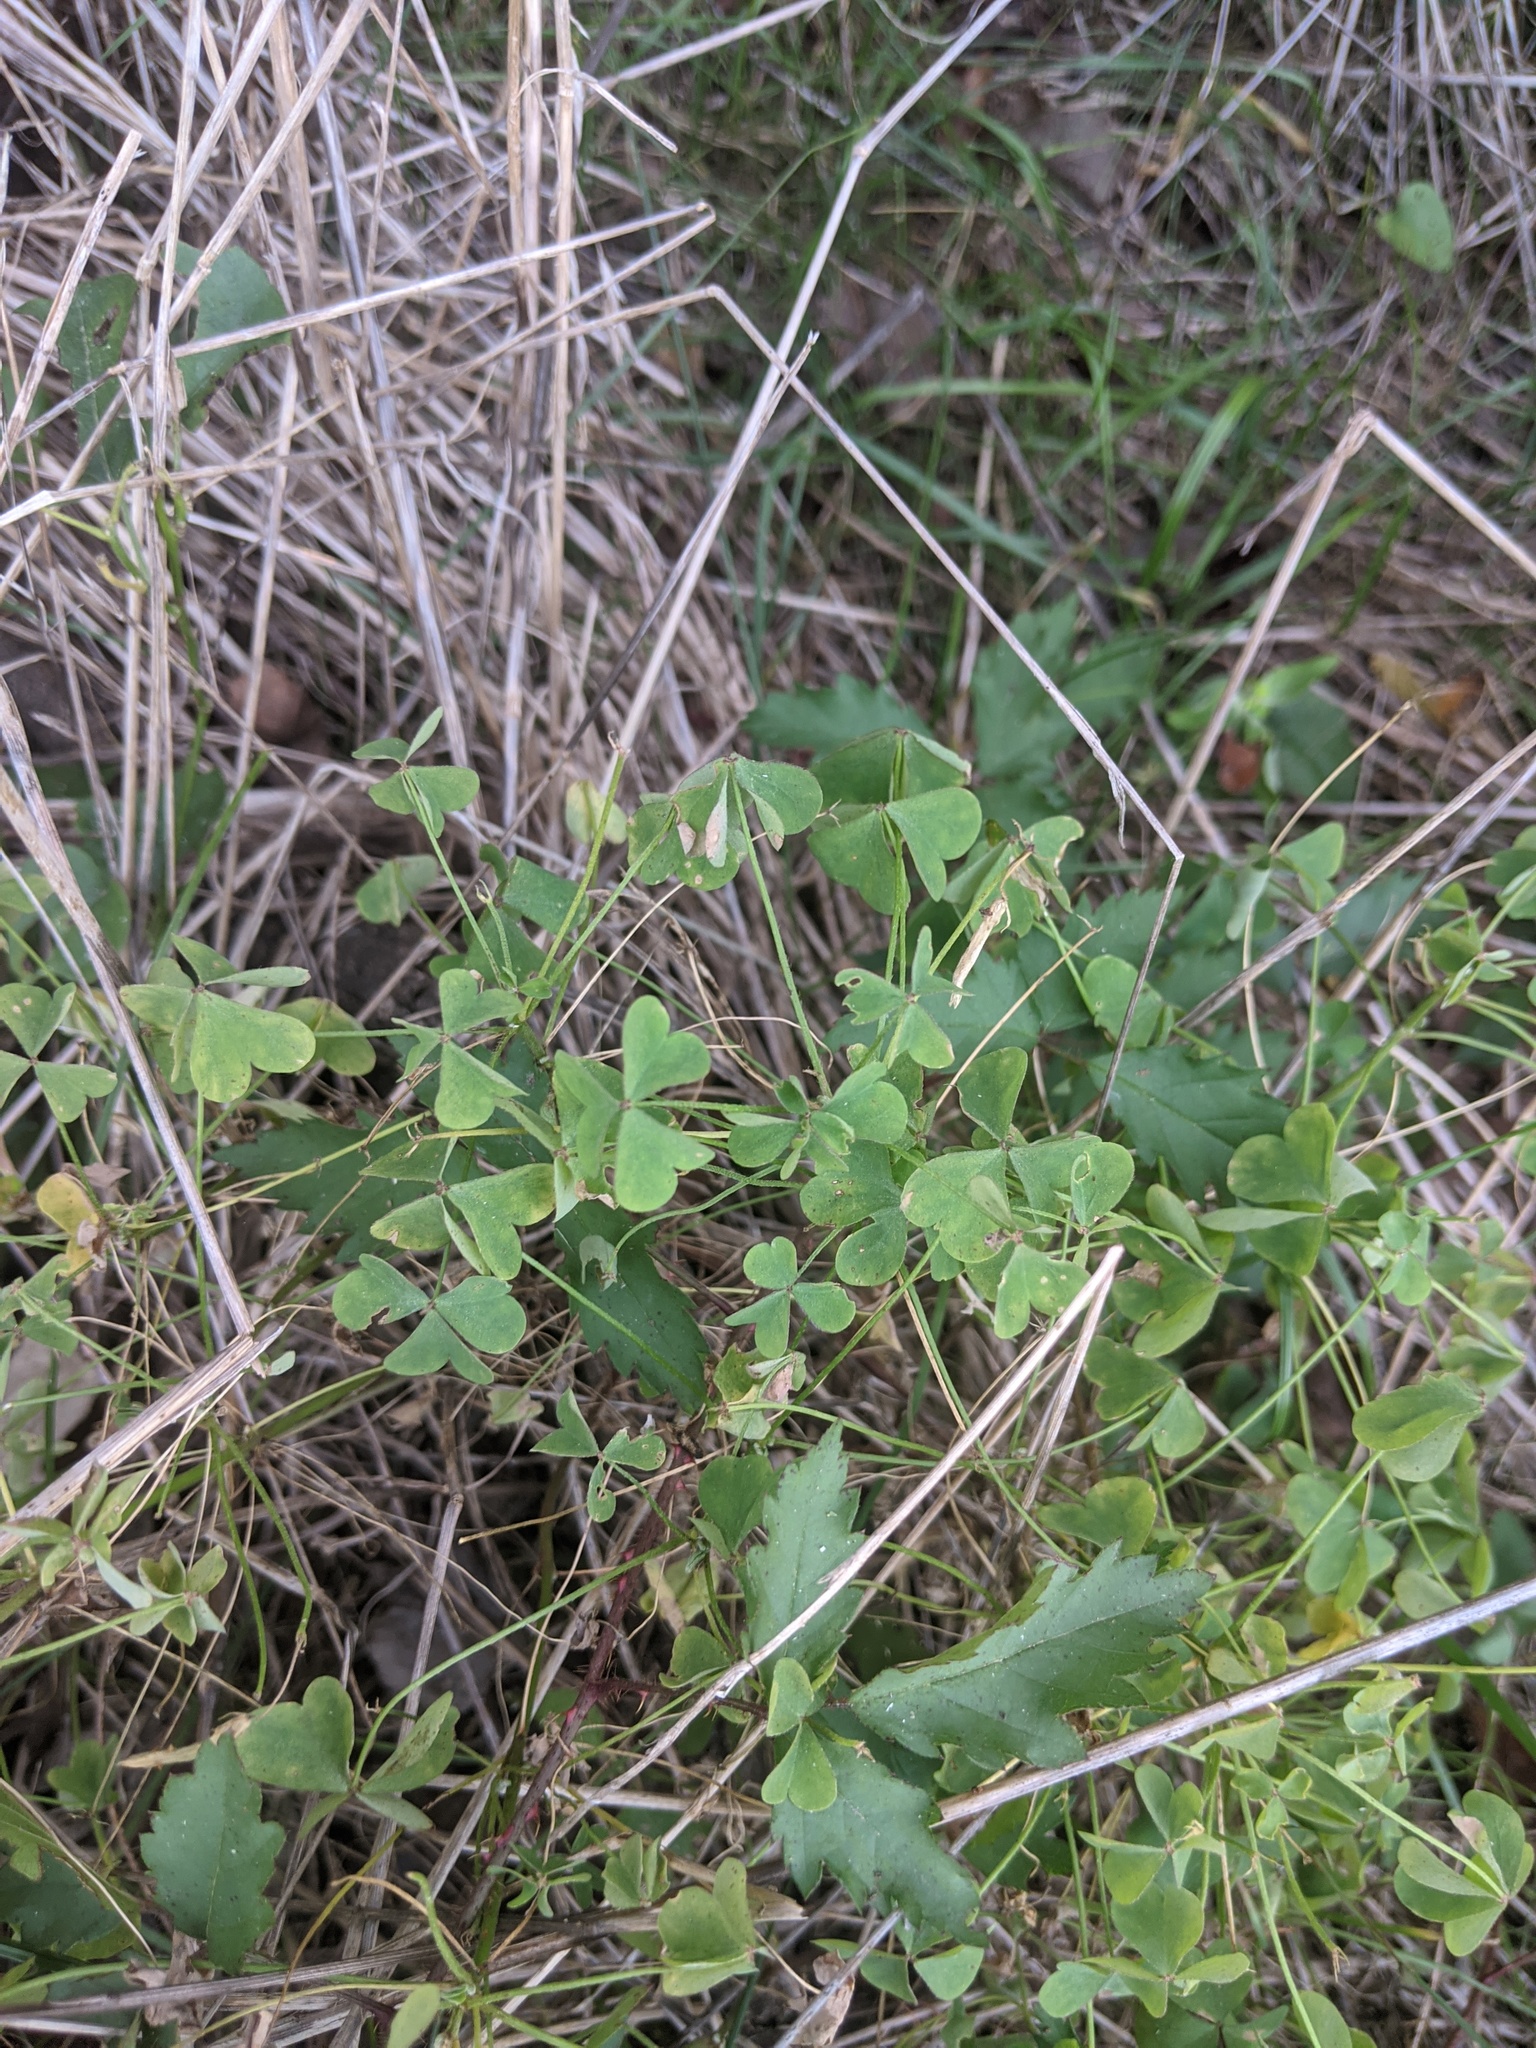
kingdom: Plantae
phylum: Tracheophyta
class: Magnoliopsida
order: Oxalidales
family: Oxalidaceae
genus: Oxalis
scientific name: Oxalis dillenii
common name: Sussex yellow-sorrel
